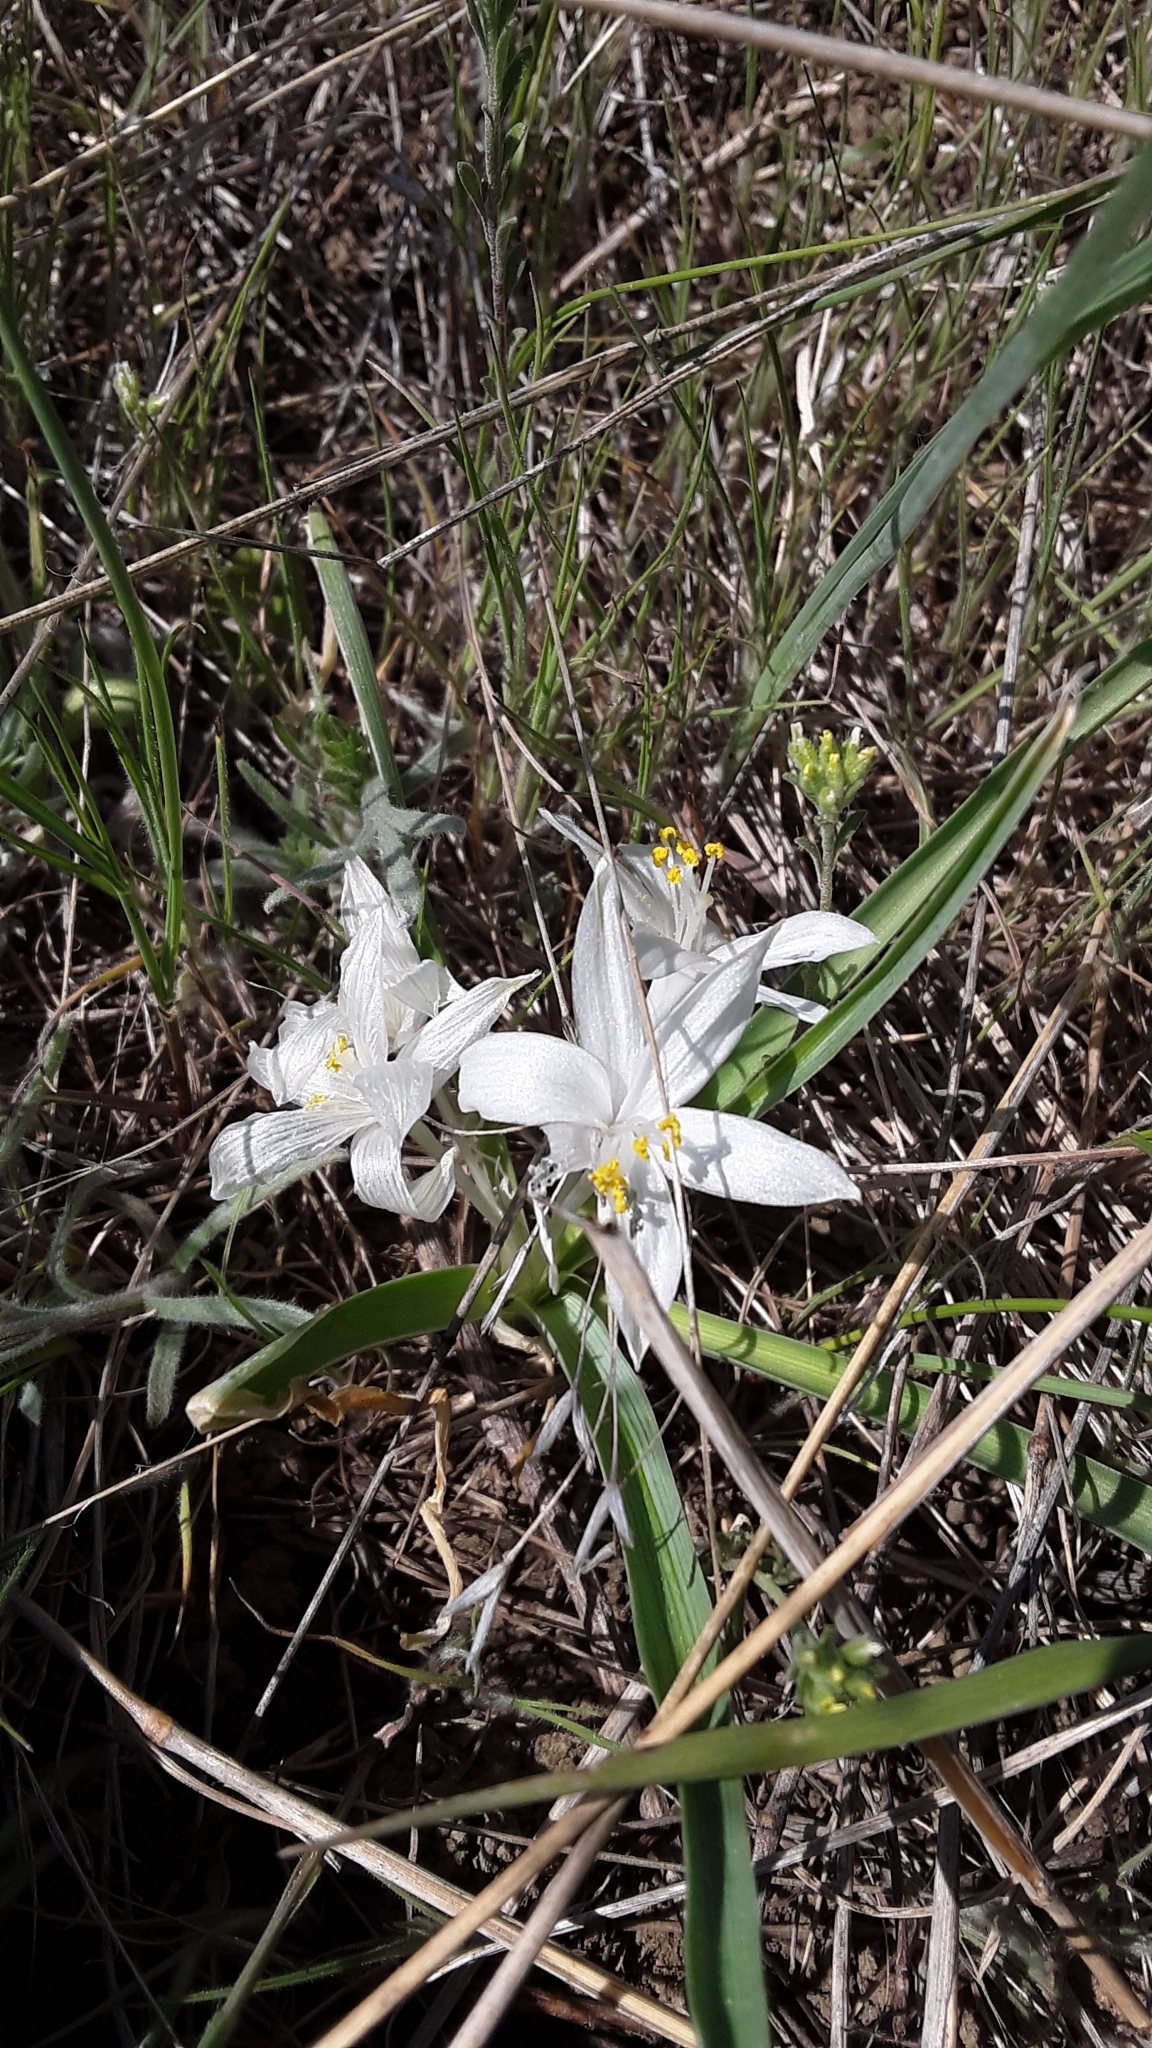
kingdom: Plantae
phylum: Tracheophyta
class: Liliopsida
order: Asparagales
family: Asparagaceae
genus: Leucocrinum
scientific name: Leucocrinum montanum
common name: Mountain-lily
